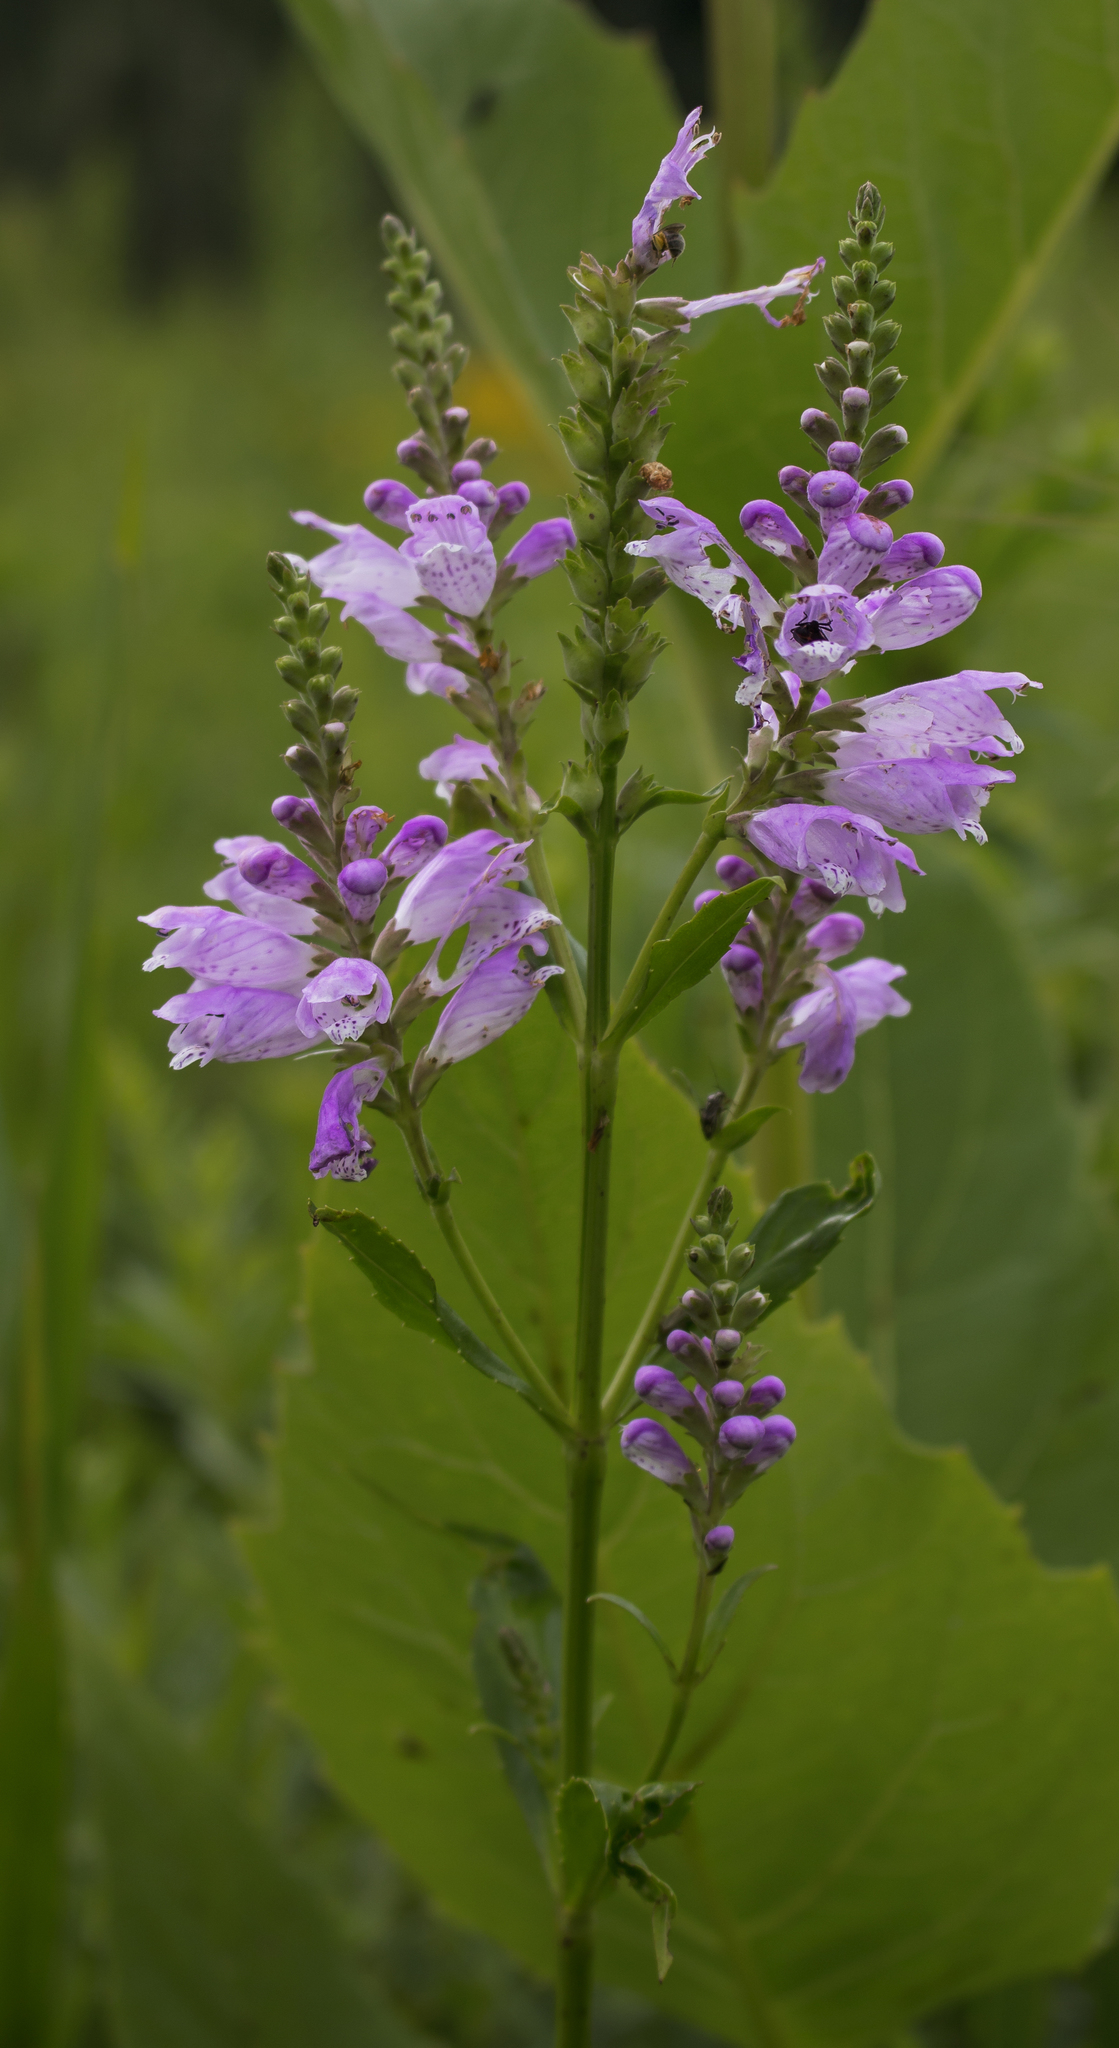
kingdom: Plantae
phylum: Tracheophyta
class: Magnoliopsida
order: Lamiales
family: Lamiaceae
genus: Physostegia
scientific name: Physostegia virginiana
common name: Obedient-plant
